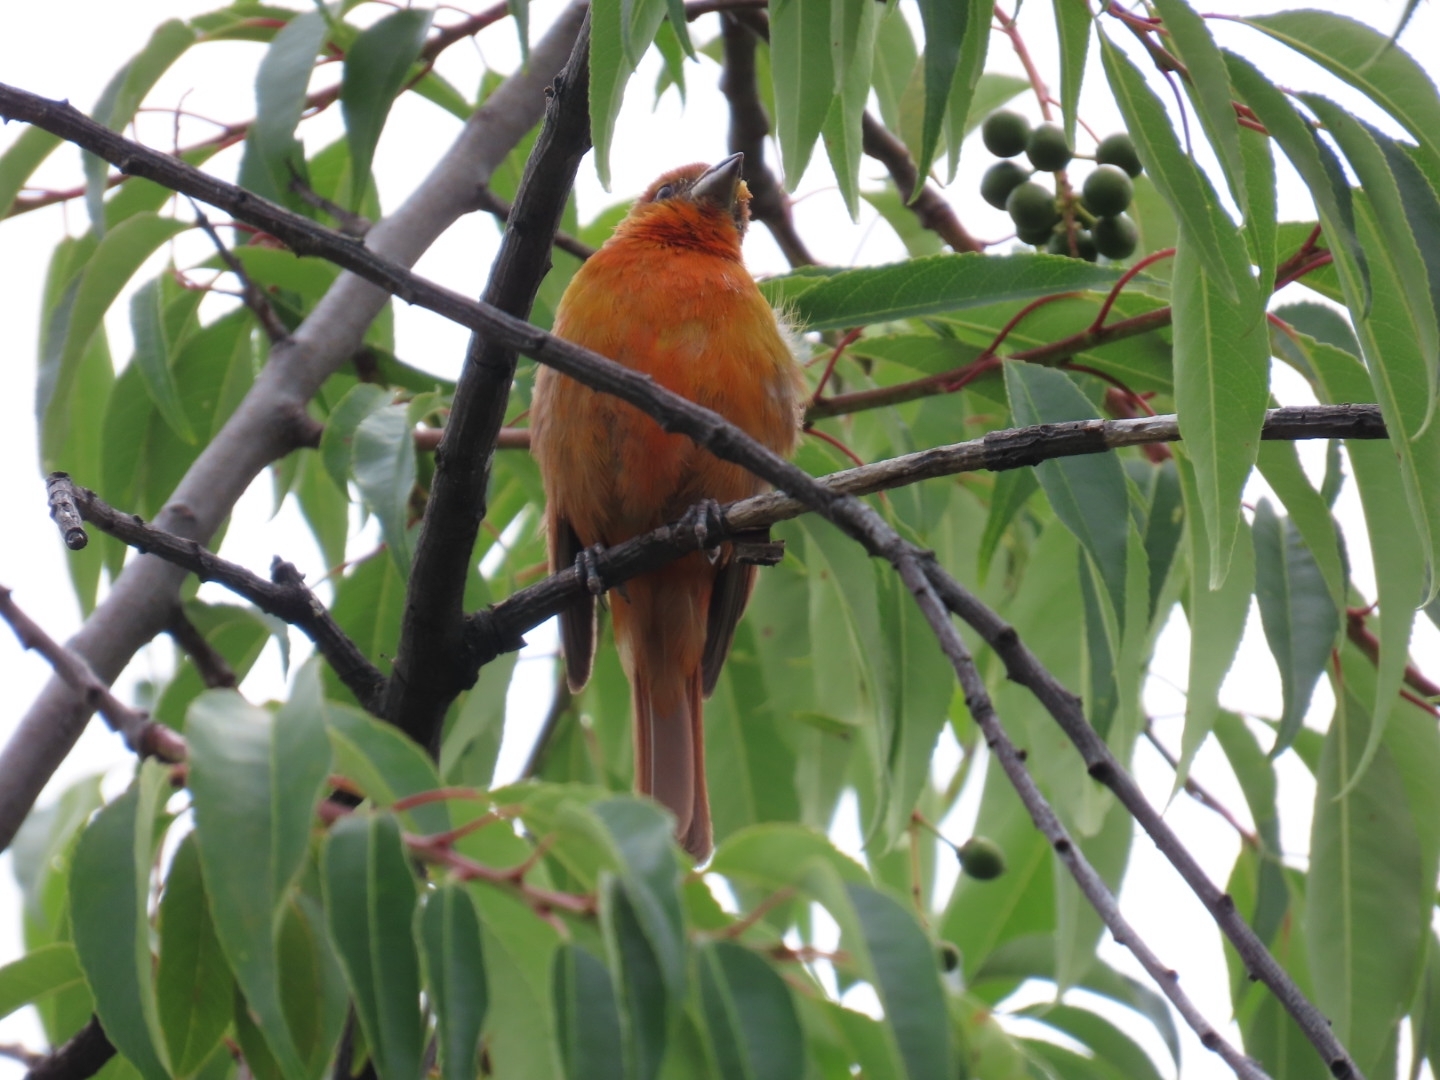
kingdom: Animalia
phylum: Chordata
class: Aves
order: Passeriformes
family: Cardinalidae
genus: Piranga
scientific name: Piranga flava
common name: Red tanager
